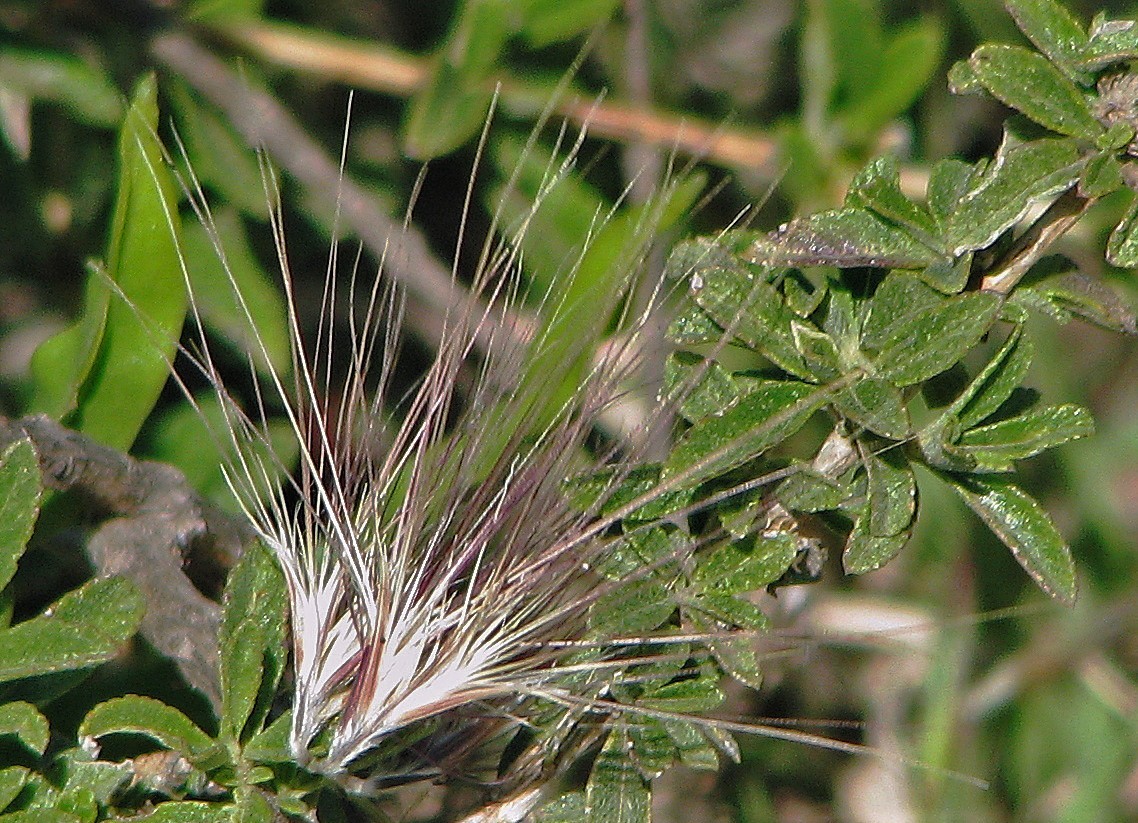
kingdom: Plantae
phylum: Tracheophyta
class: Magnoliopsida
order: Asterales
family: Asteraceae
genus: Hyaloseris
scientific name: Hyaloseris cinerea
